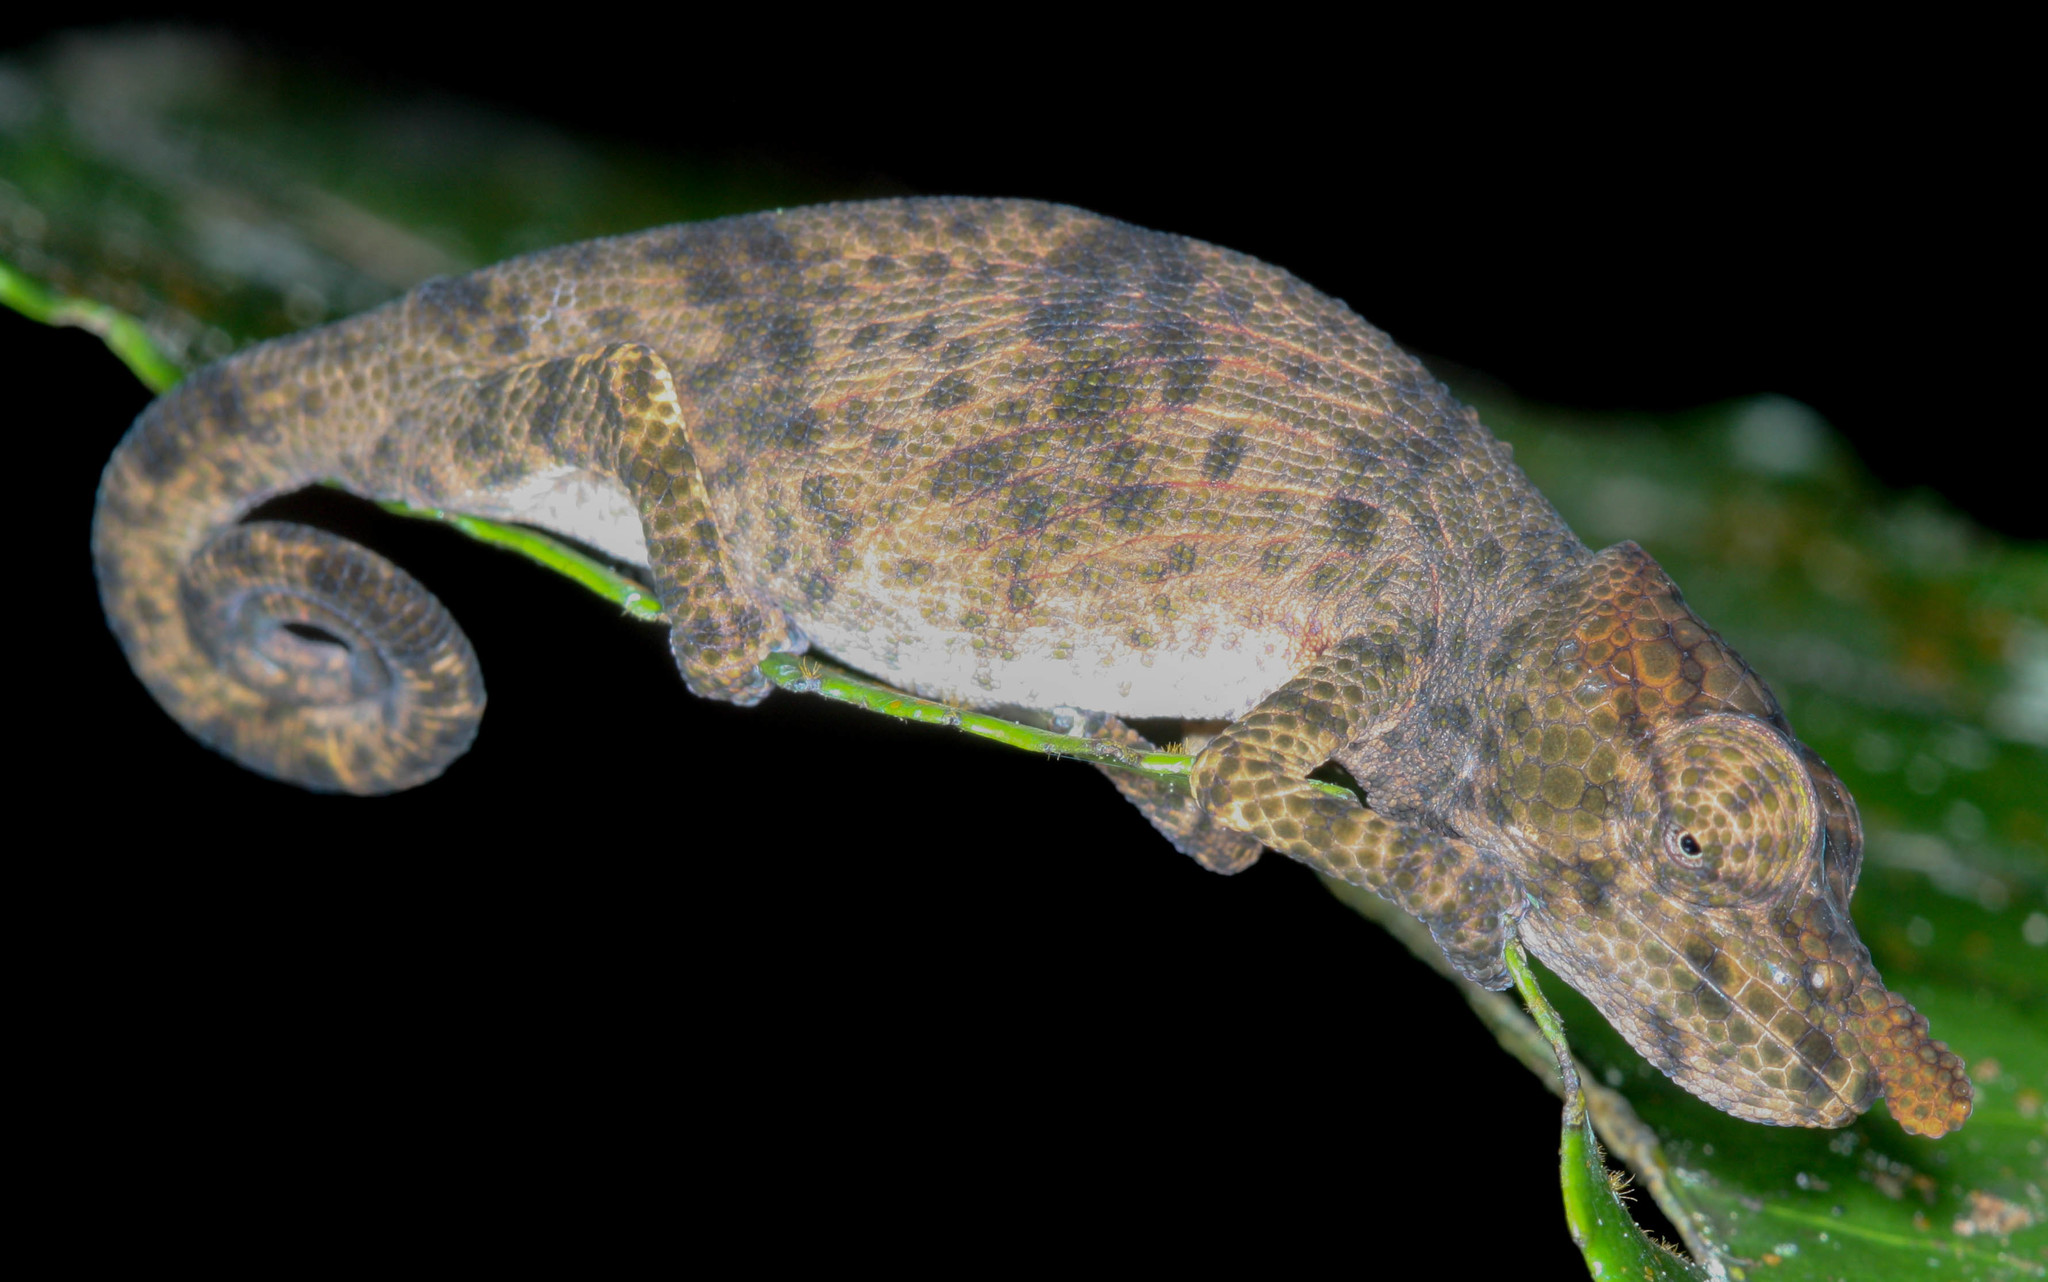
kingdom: Animalia
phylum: Chordata
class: Squamata
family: Chamaeleonidae
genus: Calumma
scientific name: Calumma nasutum
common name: Nose-horned chameleon
